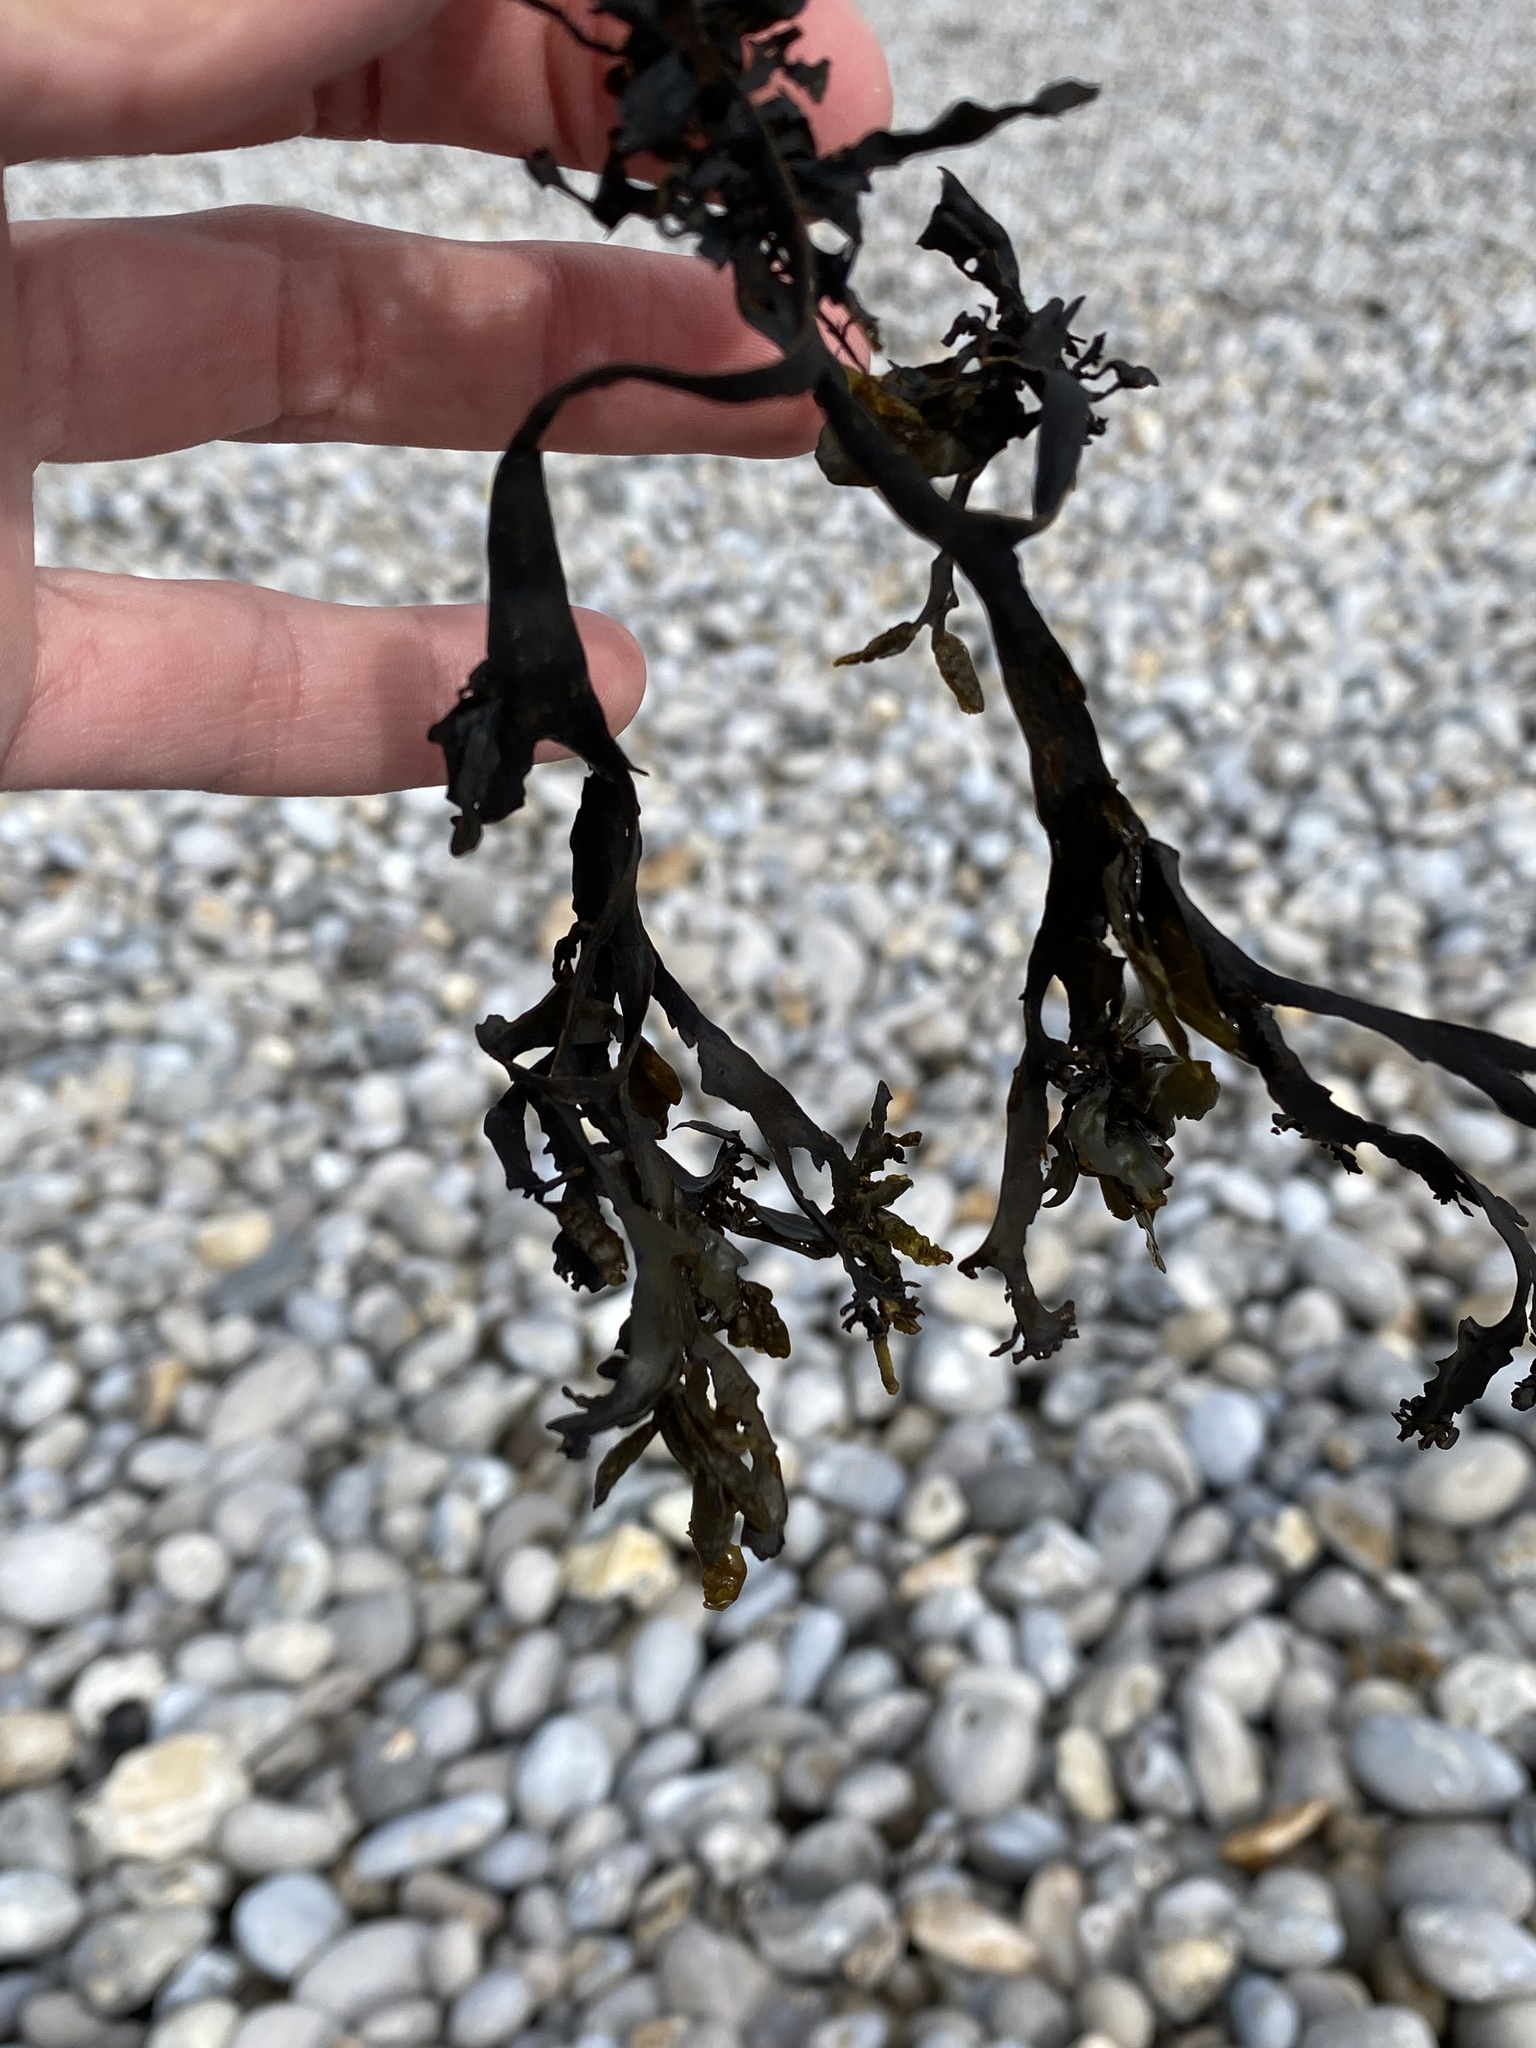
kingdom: Chromista
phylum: Ochrophyta
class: Phaeophyceae
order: Fucales
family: Fucaceae
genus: Fucus
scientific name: Fucus
